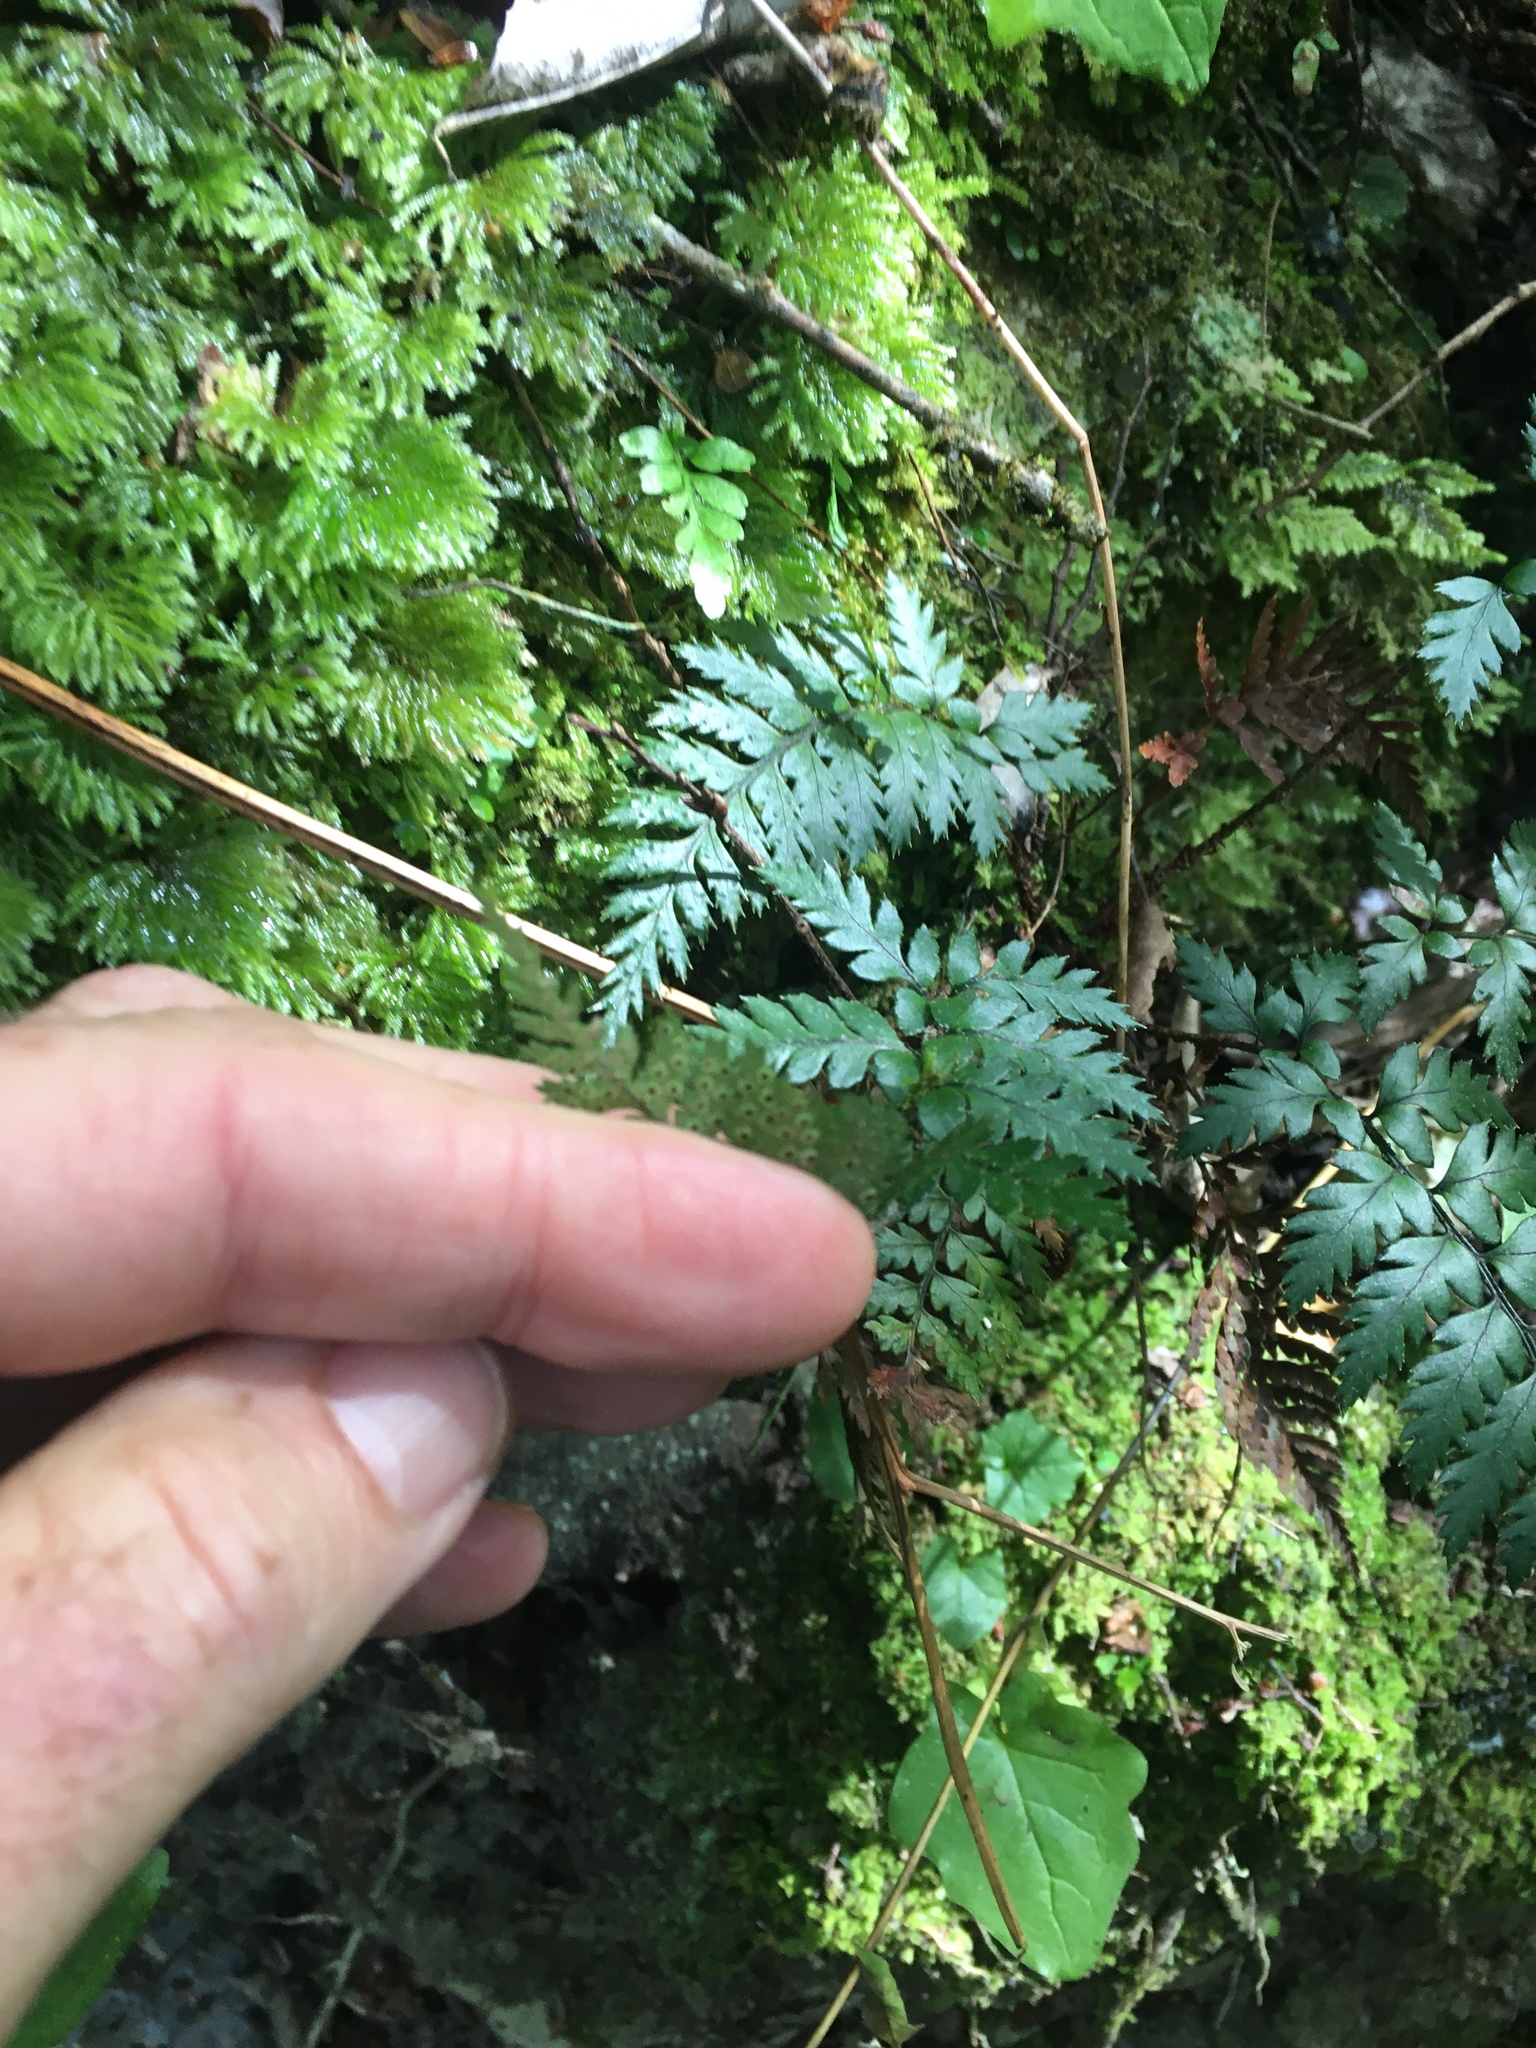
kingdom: Plantae
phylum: Tracheophyta
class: Polypodiopsida
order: Polypodiales
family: Dryopteridaceae
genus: Polystichum
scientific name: Polystichum neozelandicum
